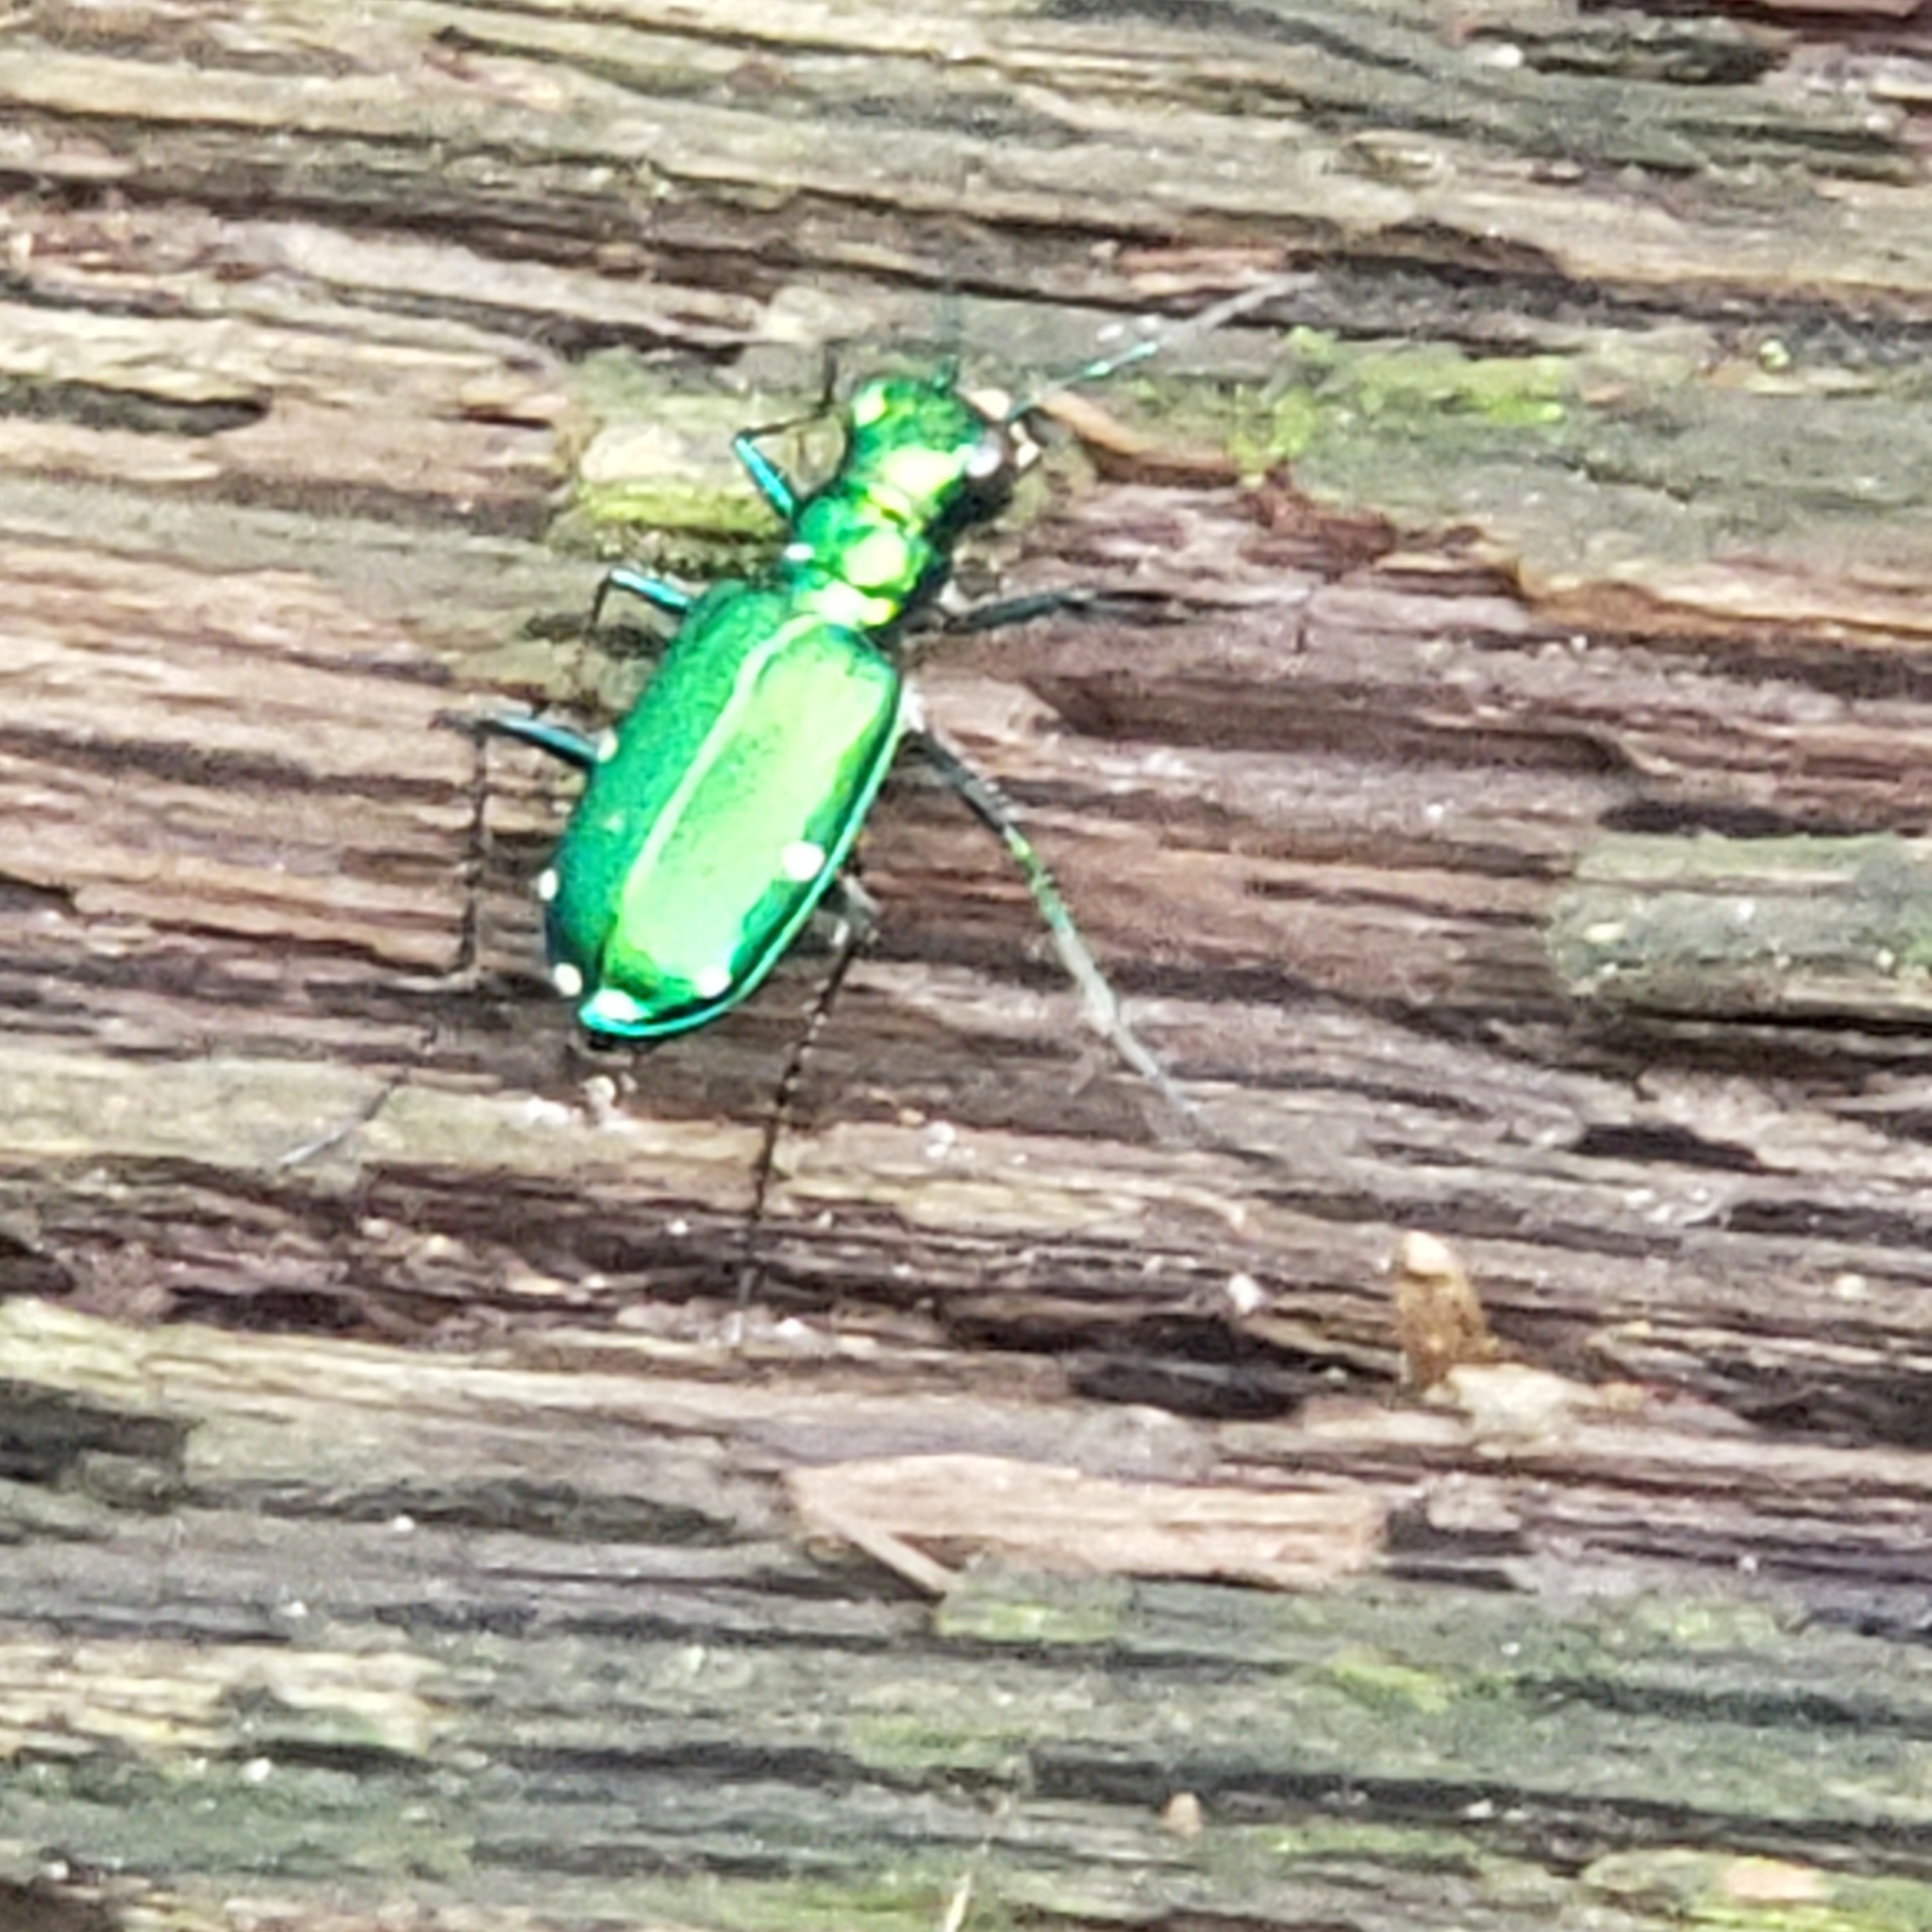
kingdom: Animalia
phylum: Arthropoda
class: Insecta
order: Coleoptera
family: Carabidae
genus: Cicindela
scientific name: Cicindela sexguttata
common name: Six-spotted tiger beetle
